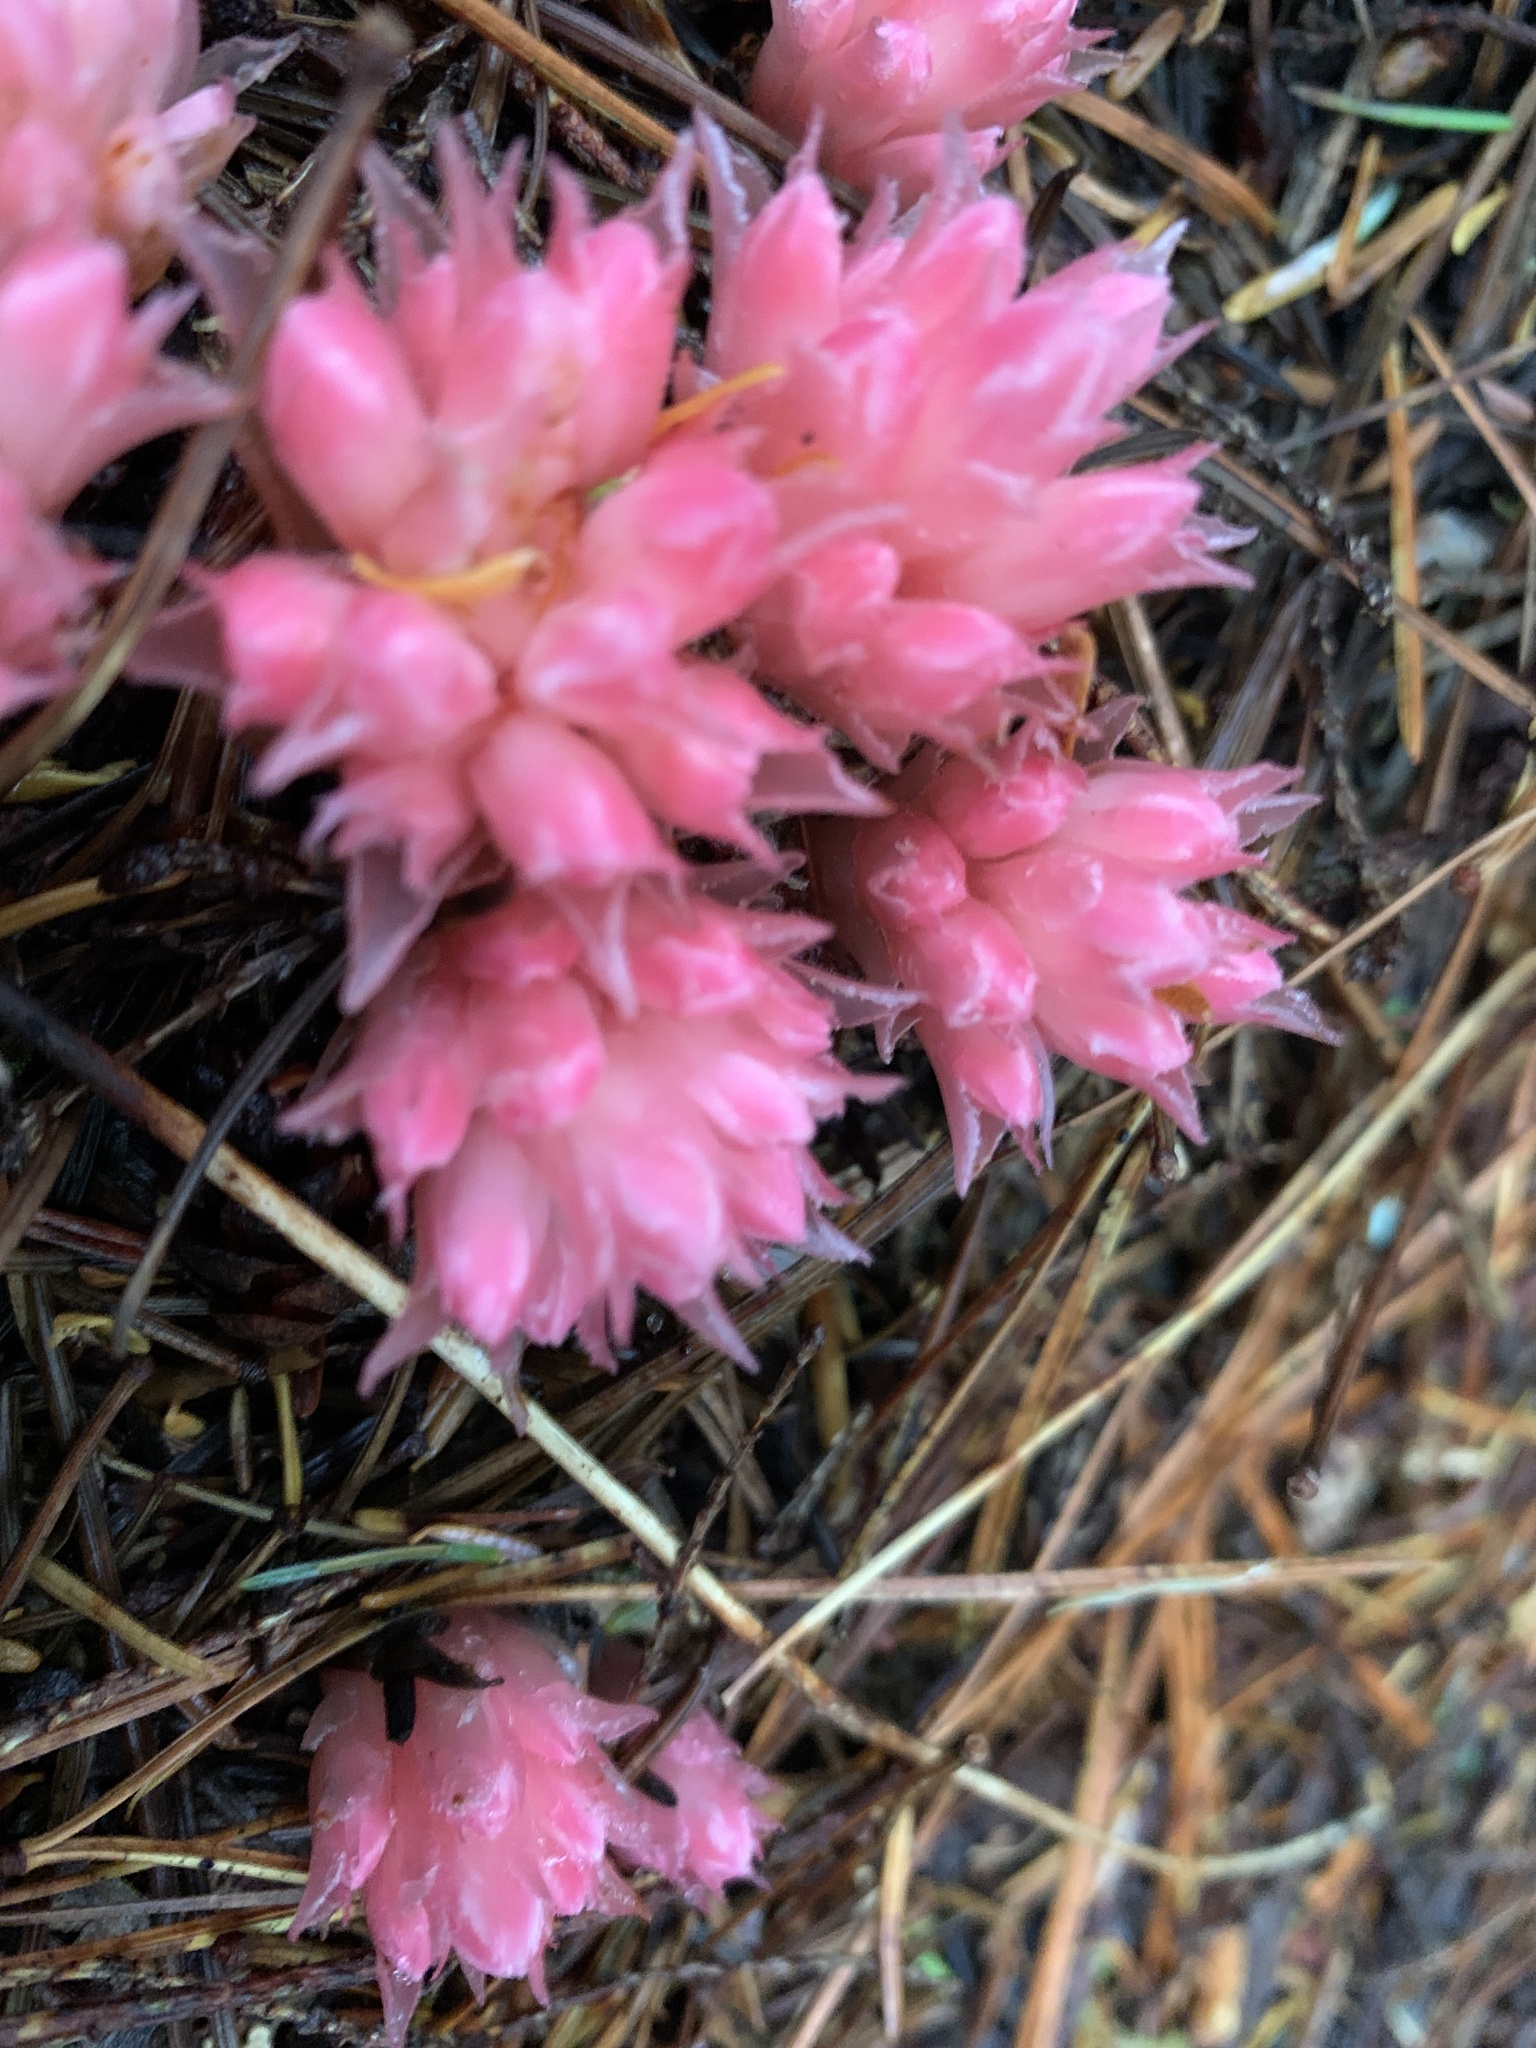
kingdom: Plantae
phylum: Tracheophyta
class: Magnoliopsida
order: Ericales
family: Ericaceae
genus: Hemitomes
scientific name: Hemitomes congestum
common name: Cone plant
